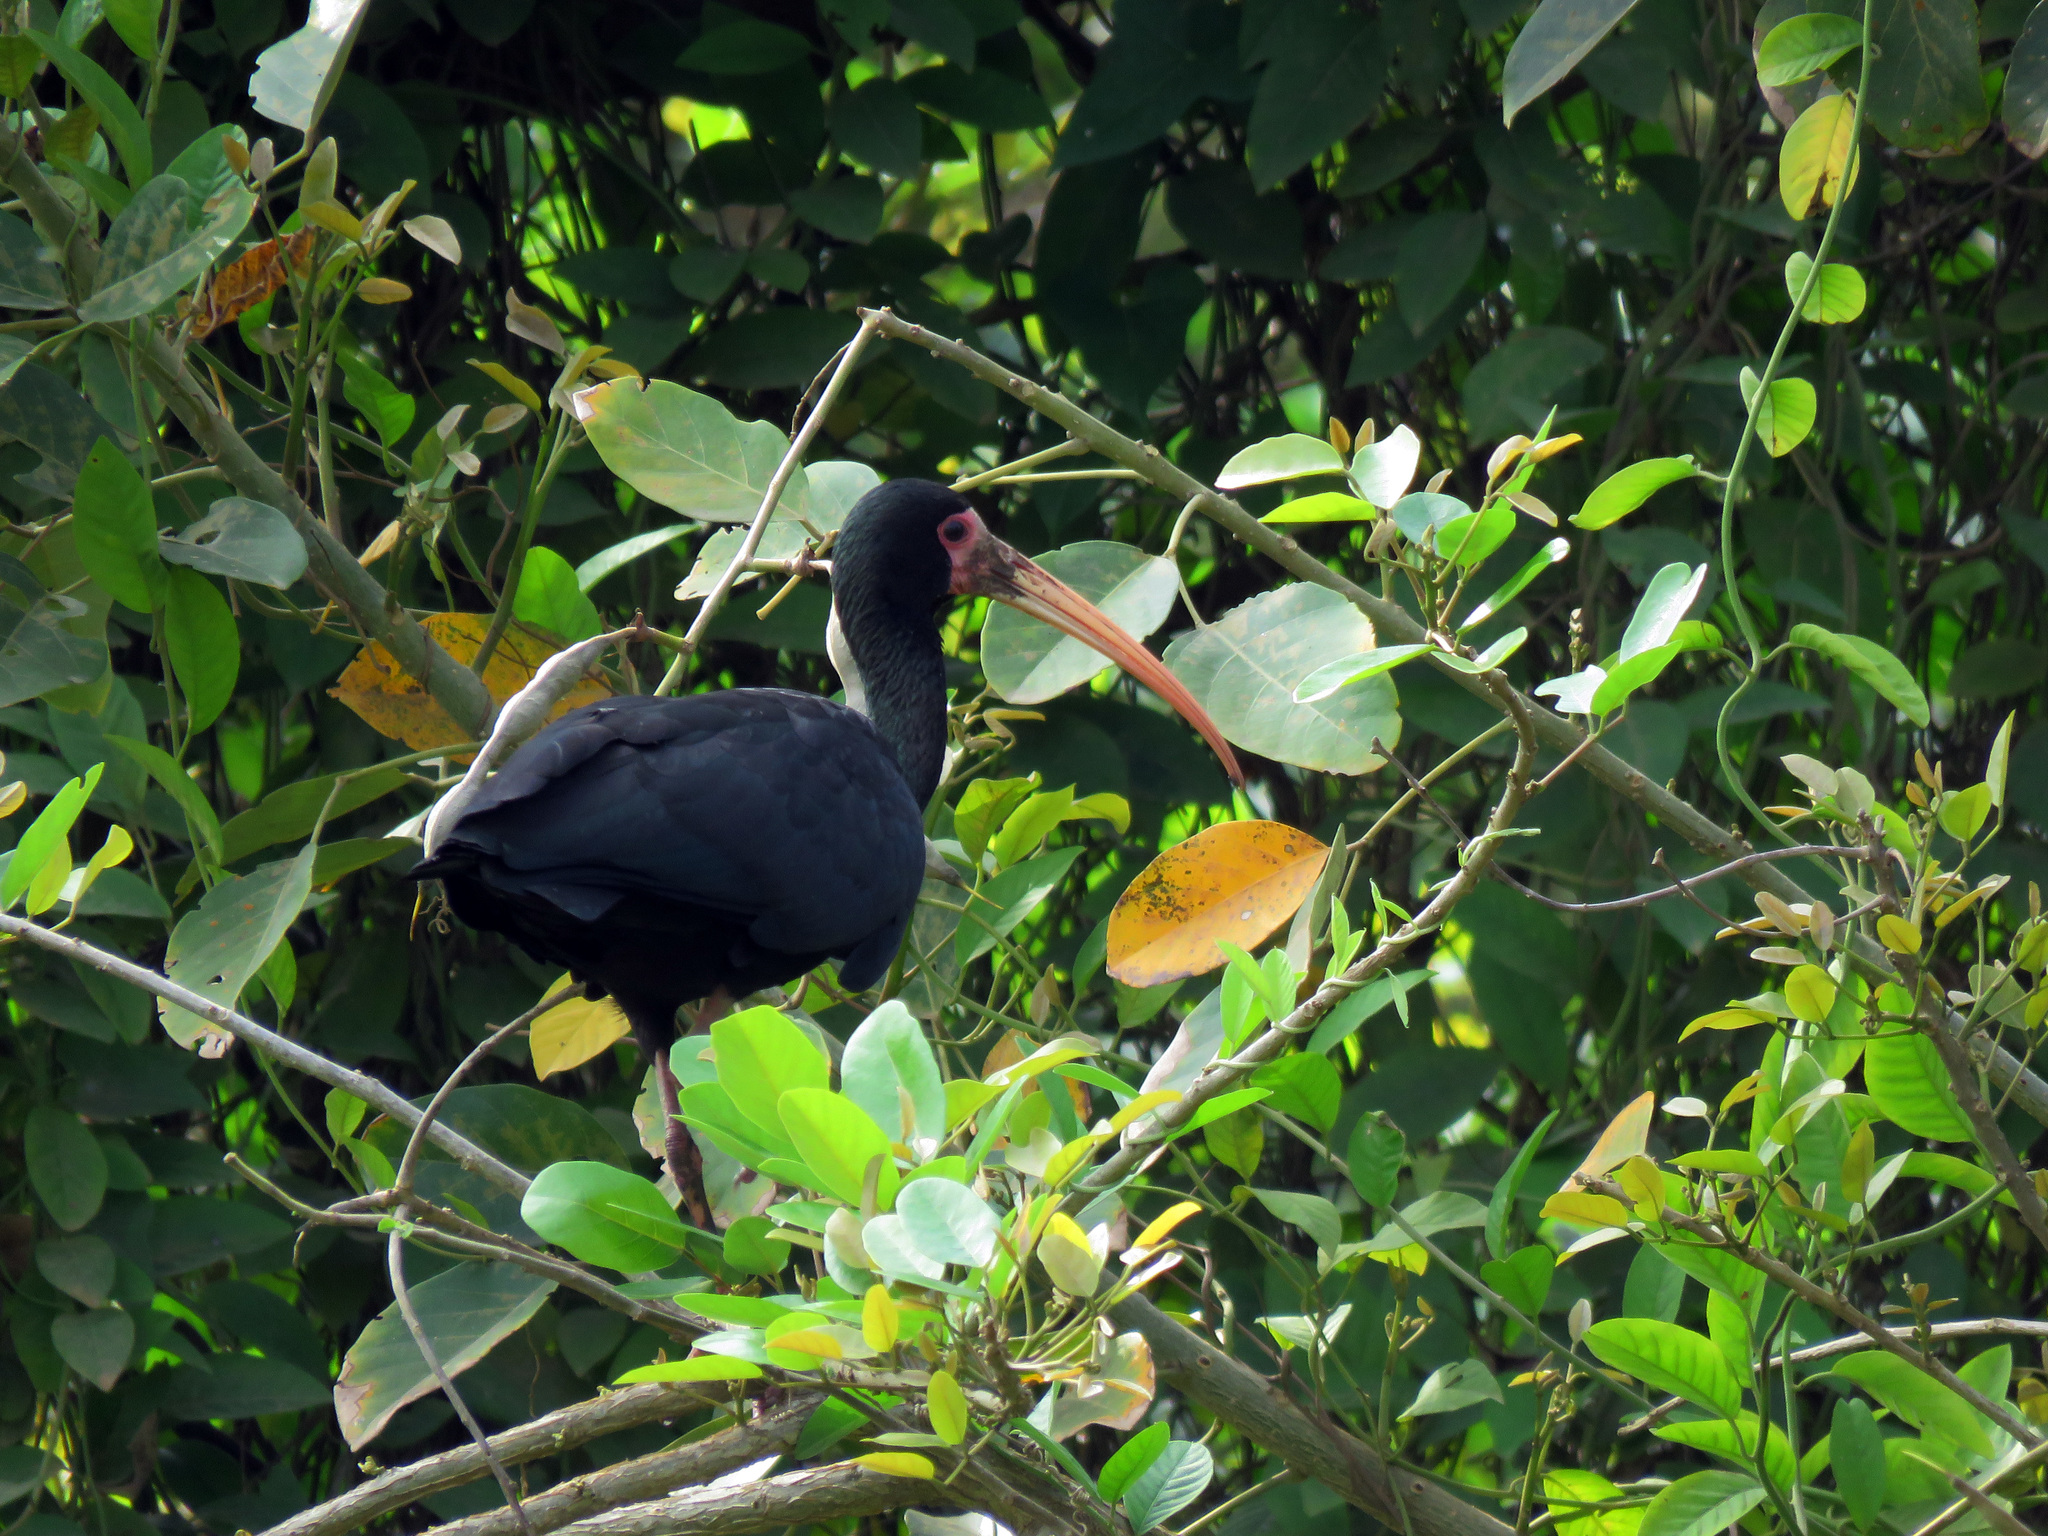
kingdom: Animalia
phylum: Chordata
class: Aves
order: Pelecaniformes
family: Threskiornithidae
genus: Phimosus
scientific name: Phimosus infuscatus
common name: Bare-faced ibis
